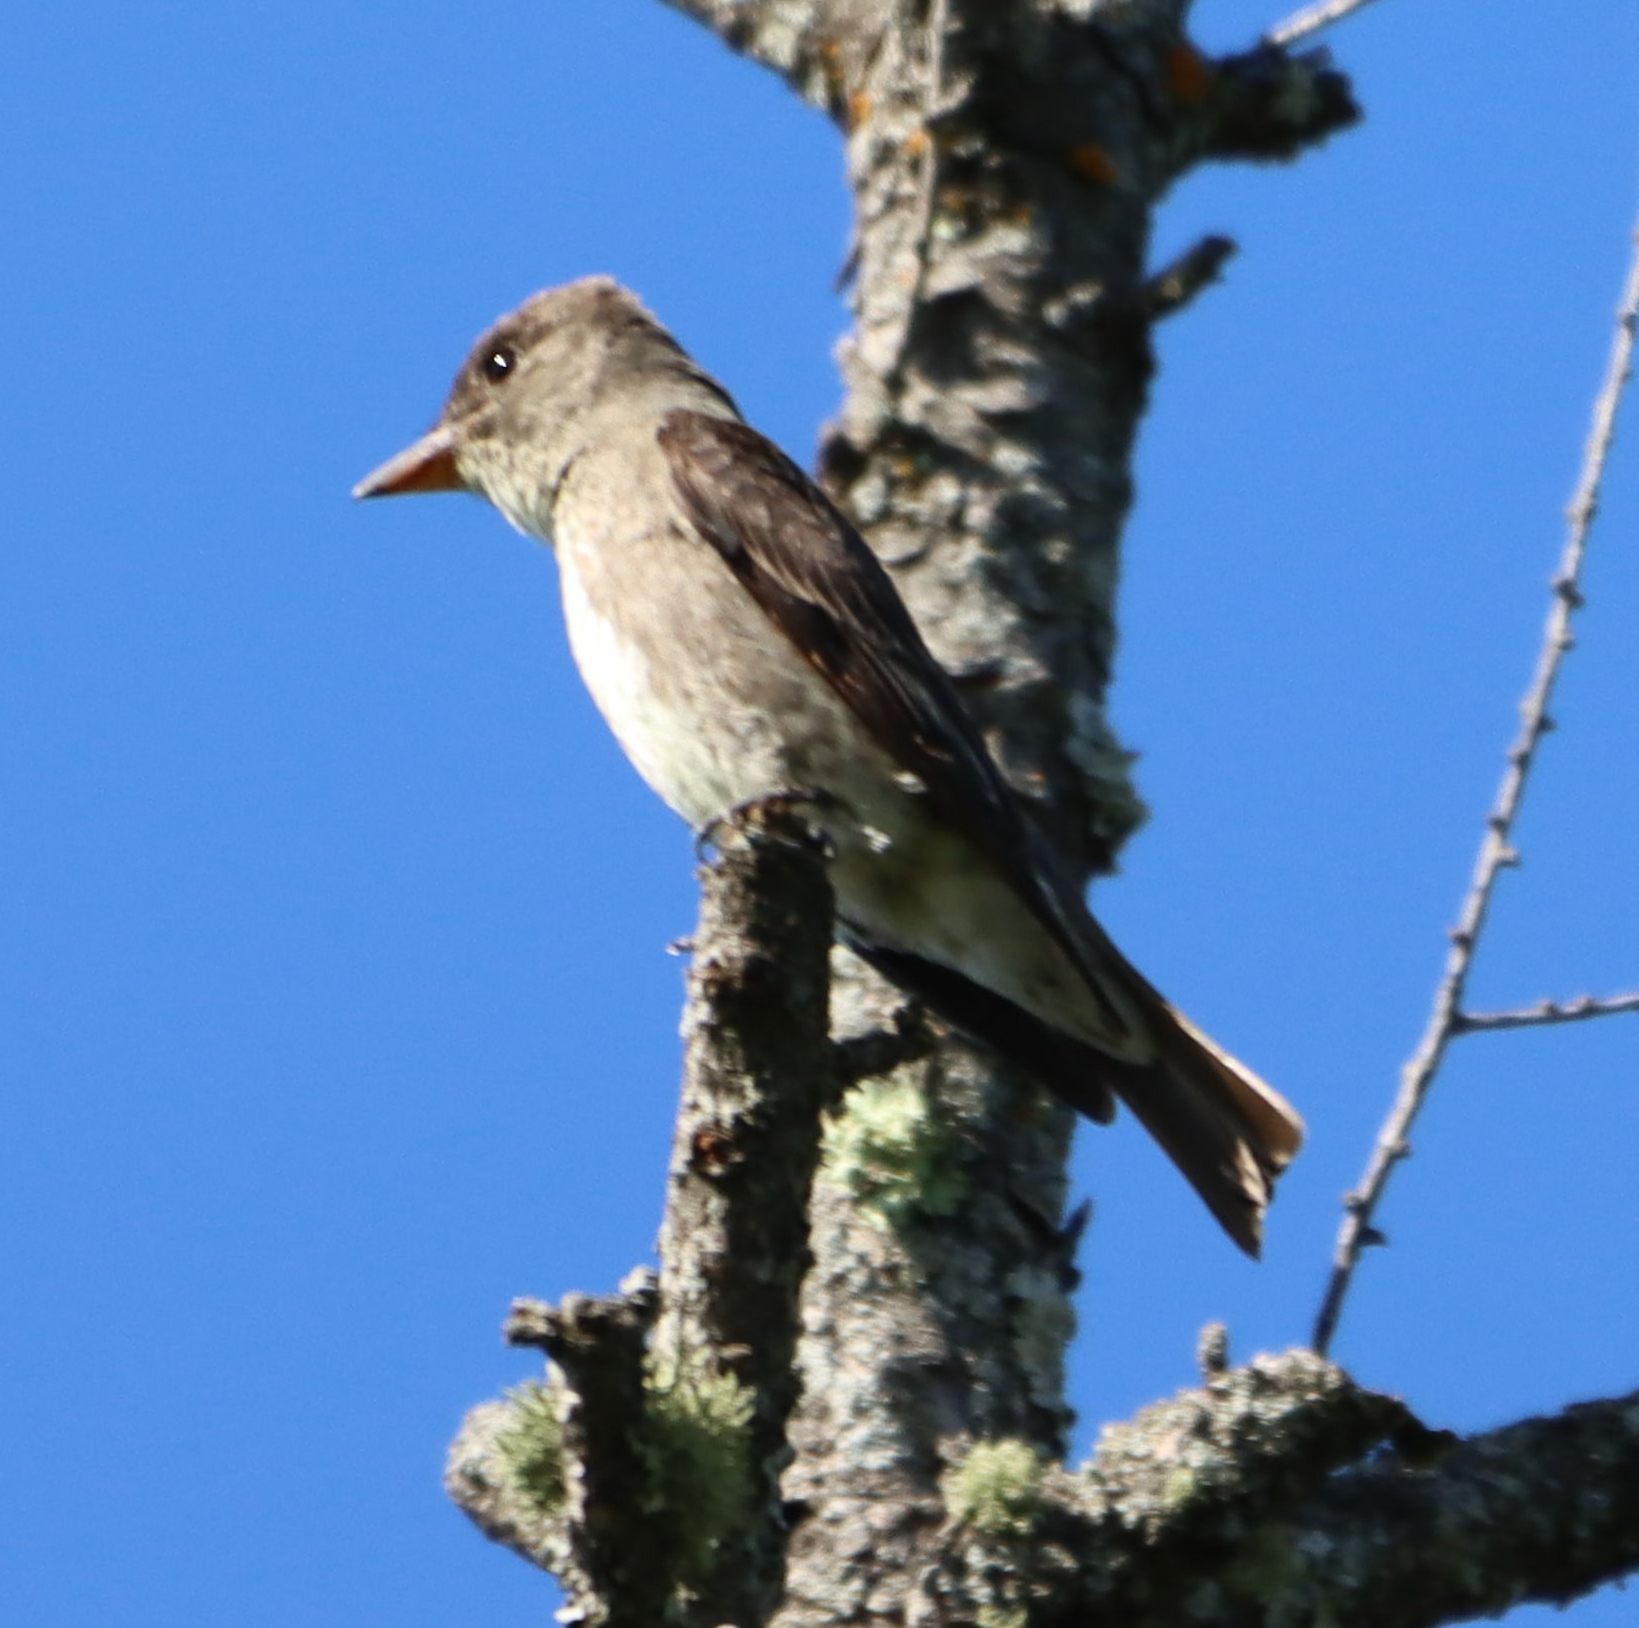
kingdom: Animalia
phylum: Chordata
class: Aves
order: Passeriformes
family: Tyrannidae
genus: Contopus
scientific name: Contopus cooperi
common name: Olive-sided flycatcher
